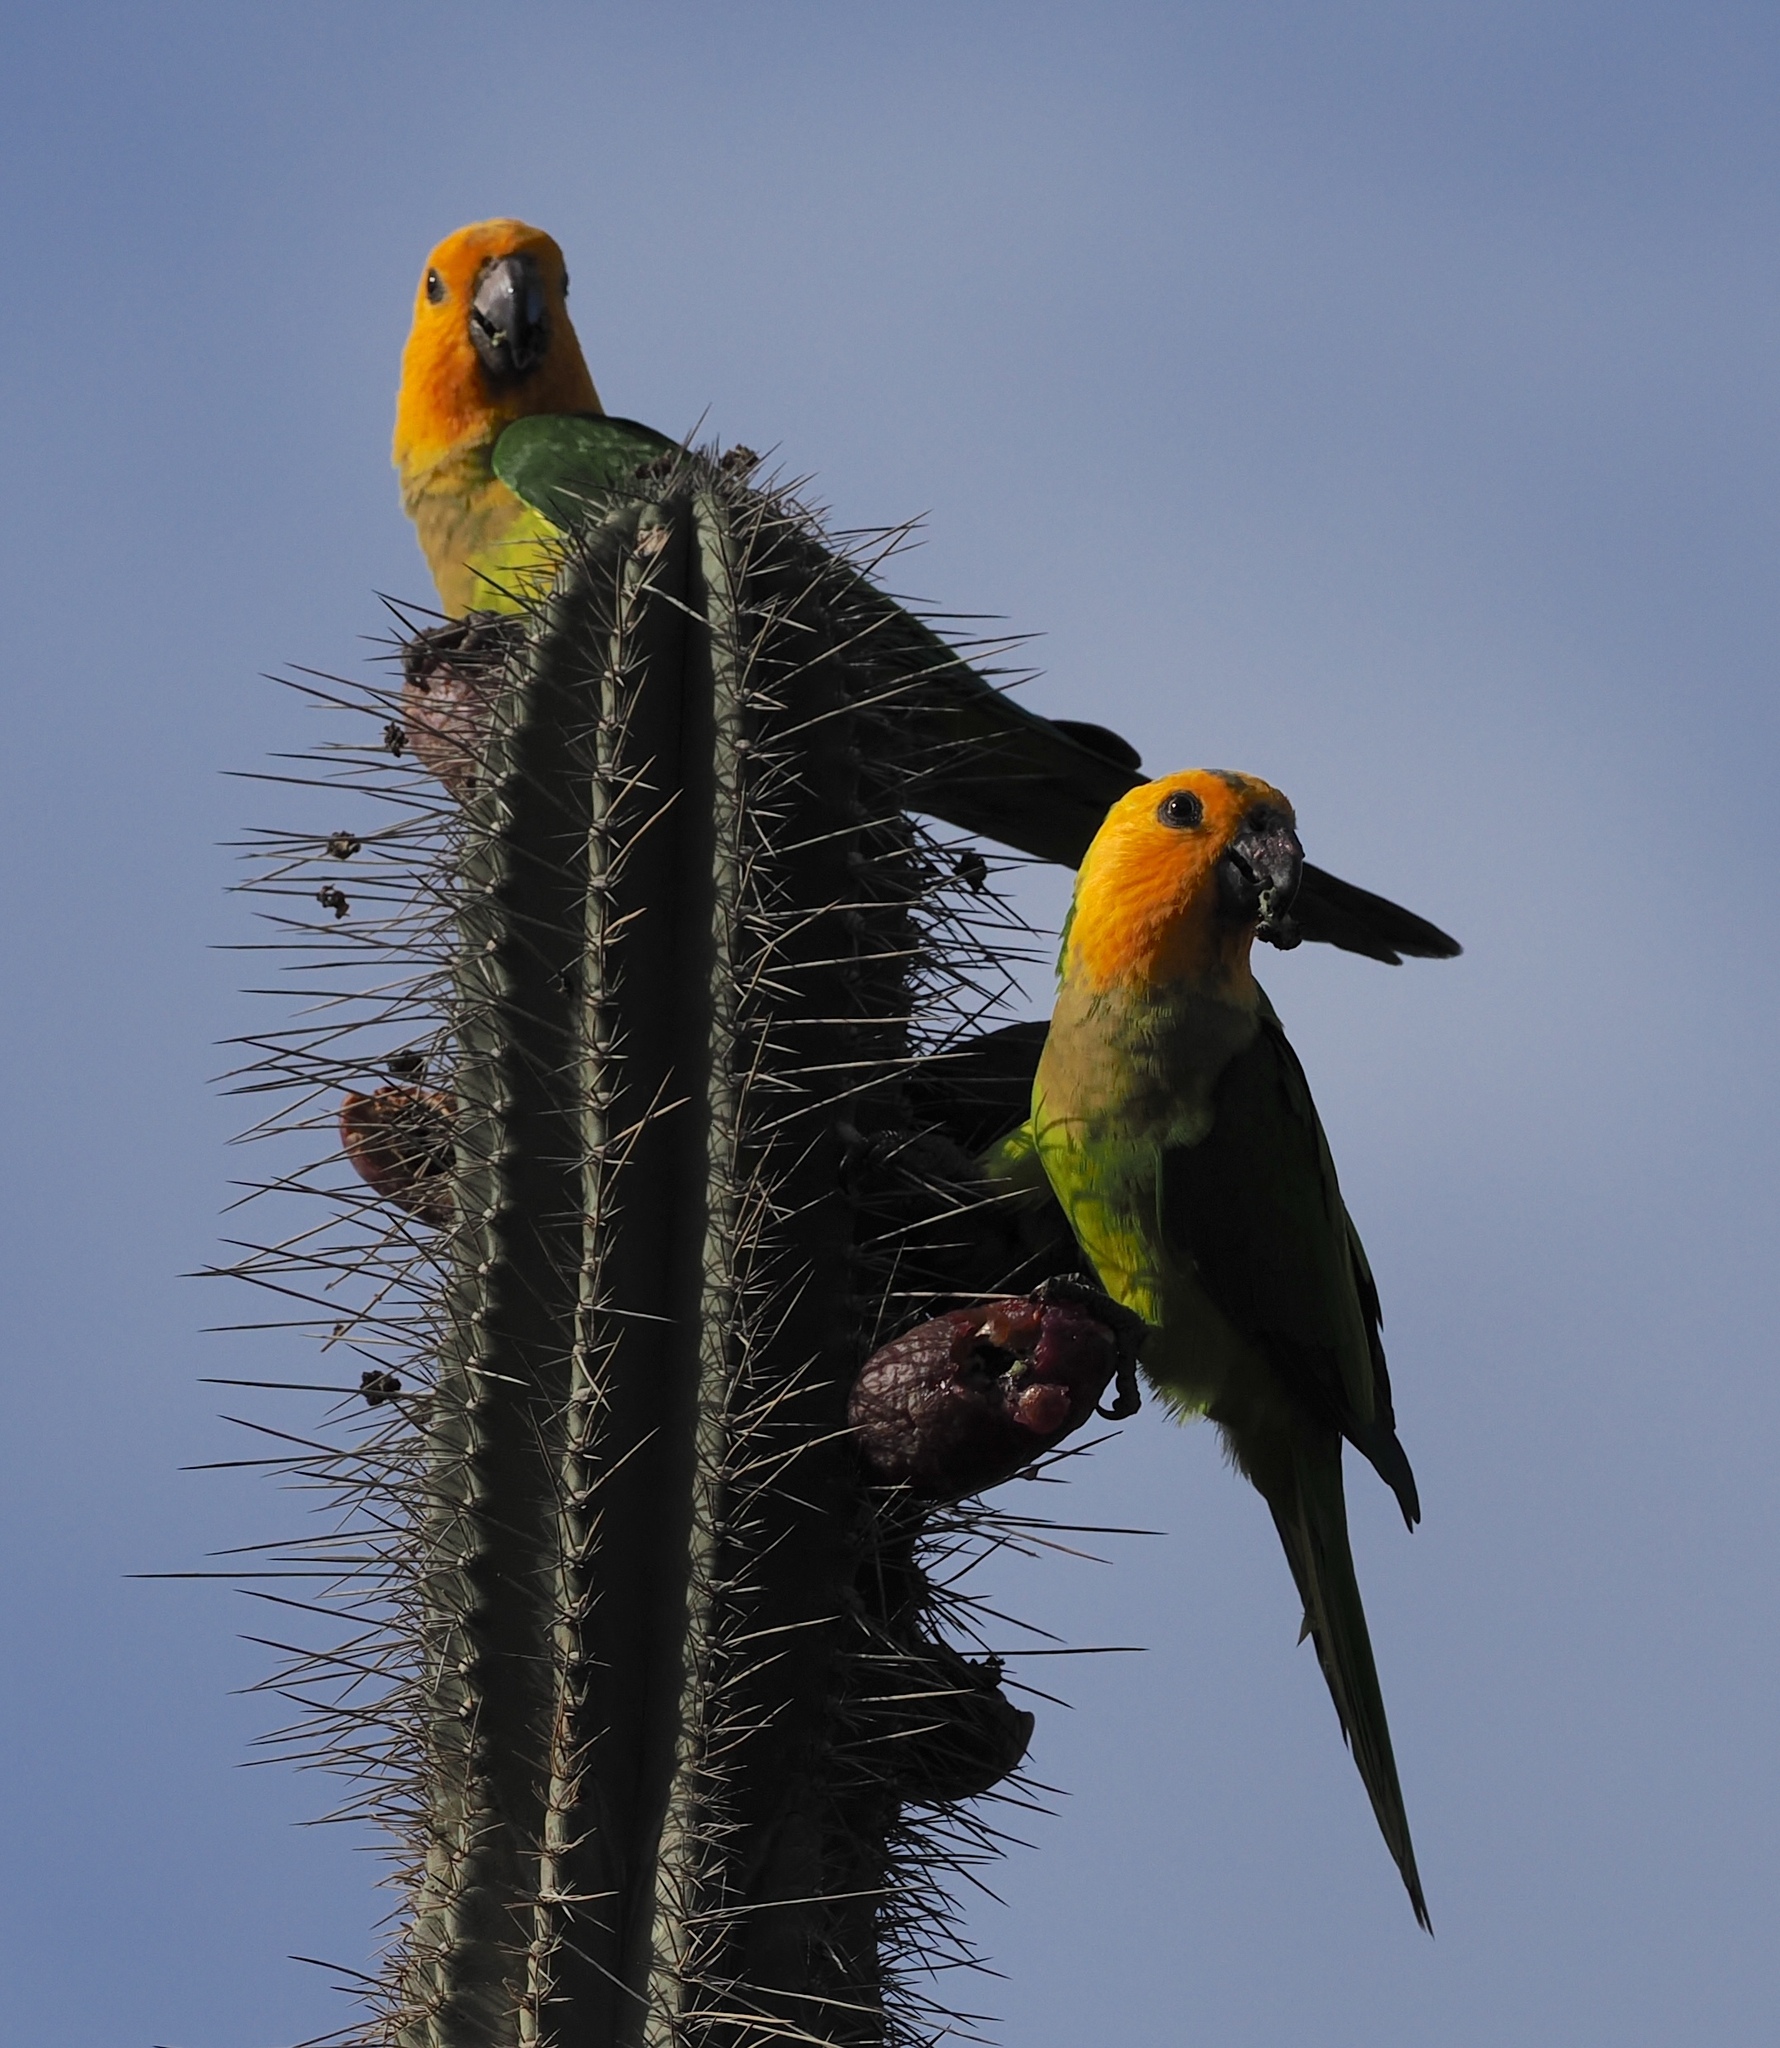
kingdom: Animalia
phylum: Chordata
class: Aves
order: Psittaciformes
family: Psittacidae
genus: Aratinga
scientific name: Aratinga pertinax
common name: Brown-throated parakeet
